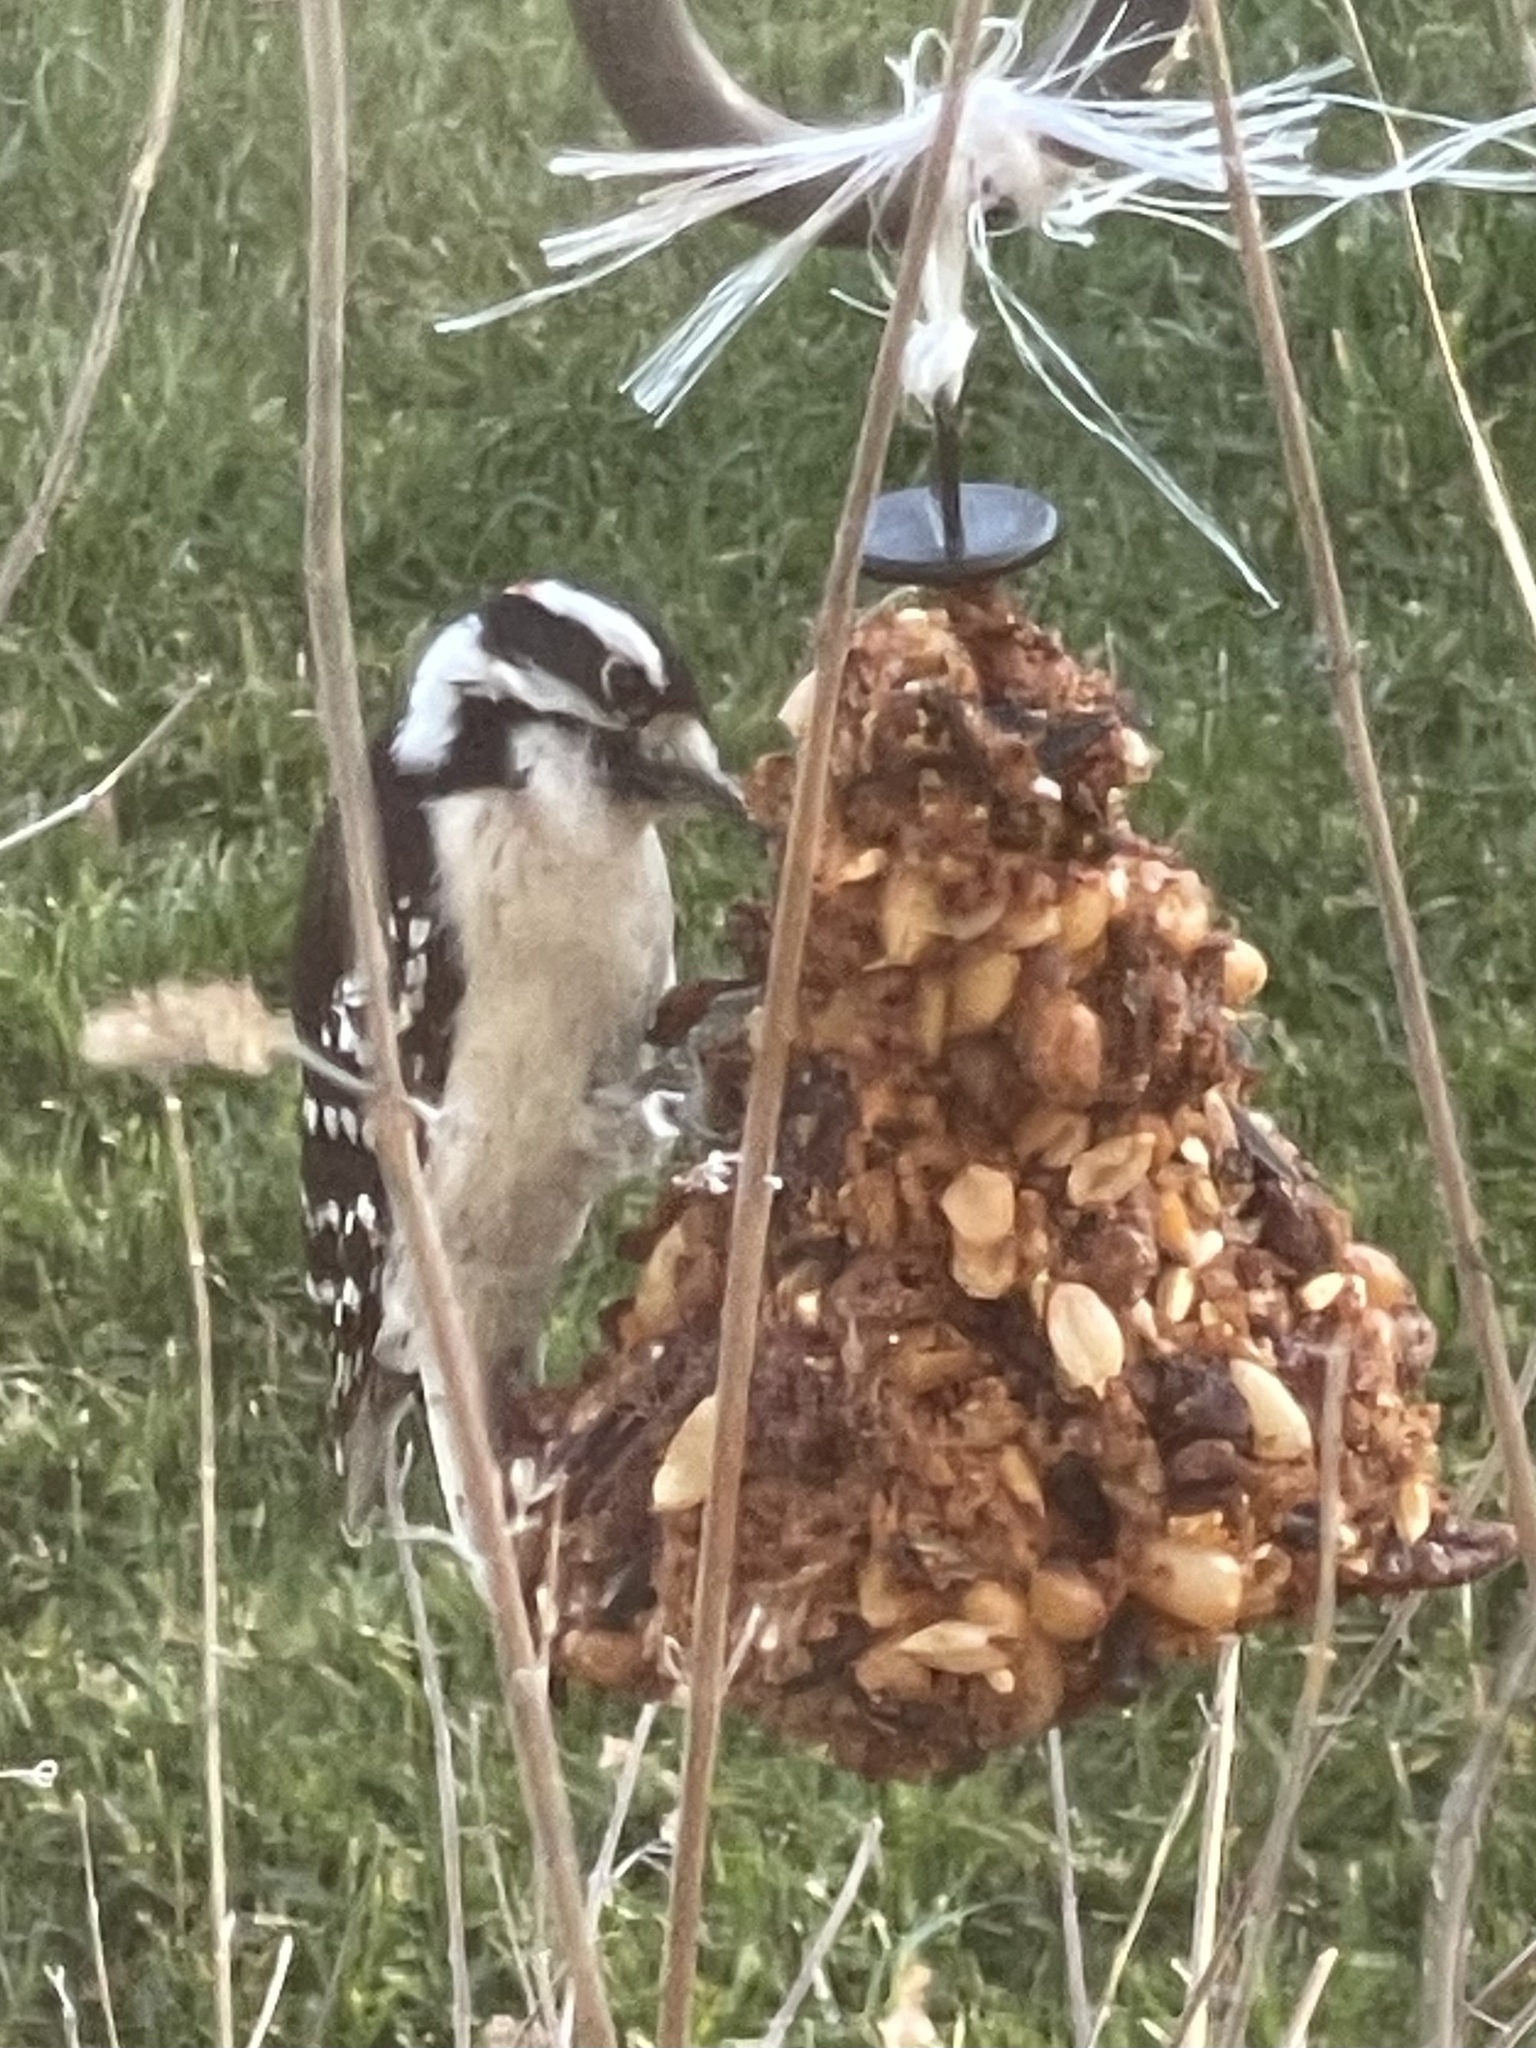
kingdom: Animalia
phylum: Chordata
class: Aves
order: Piciformes
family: Picidae
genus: Dryobates
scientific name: Dryobates pubescens
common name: Downy woodpecker
